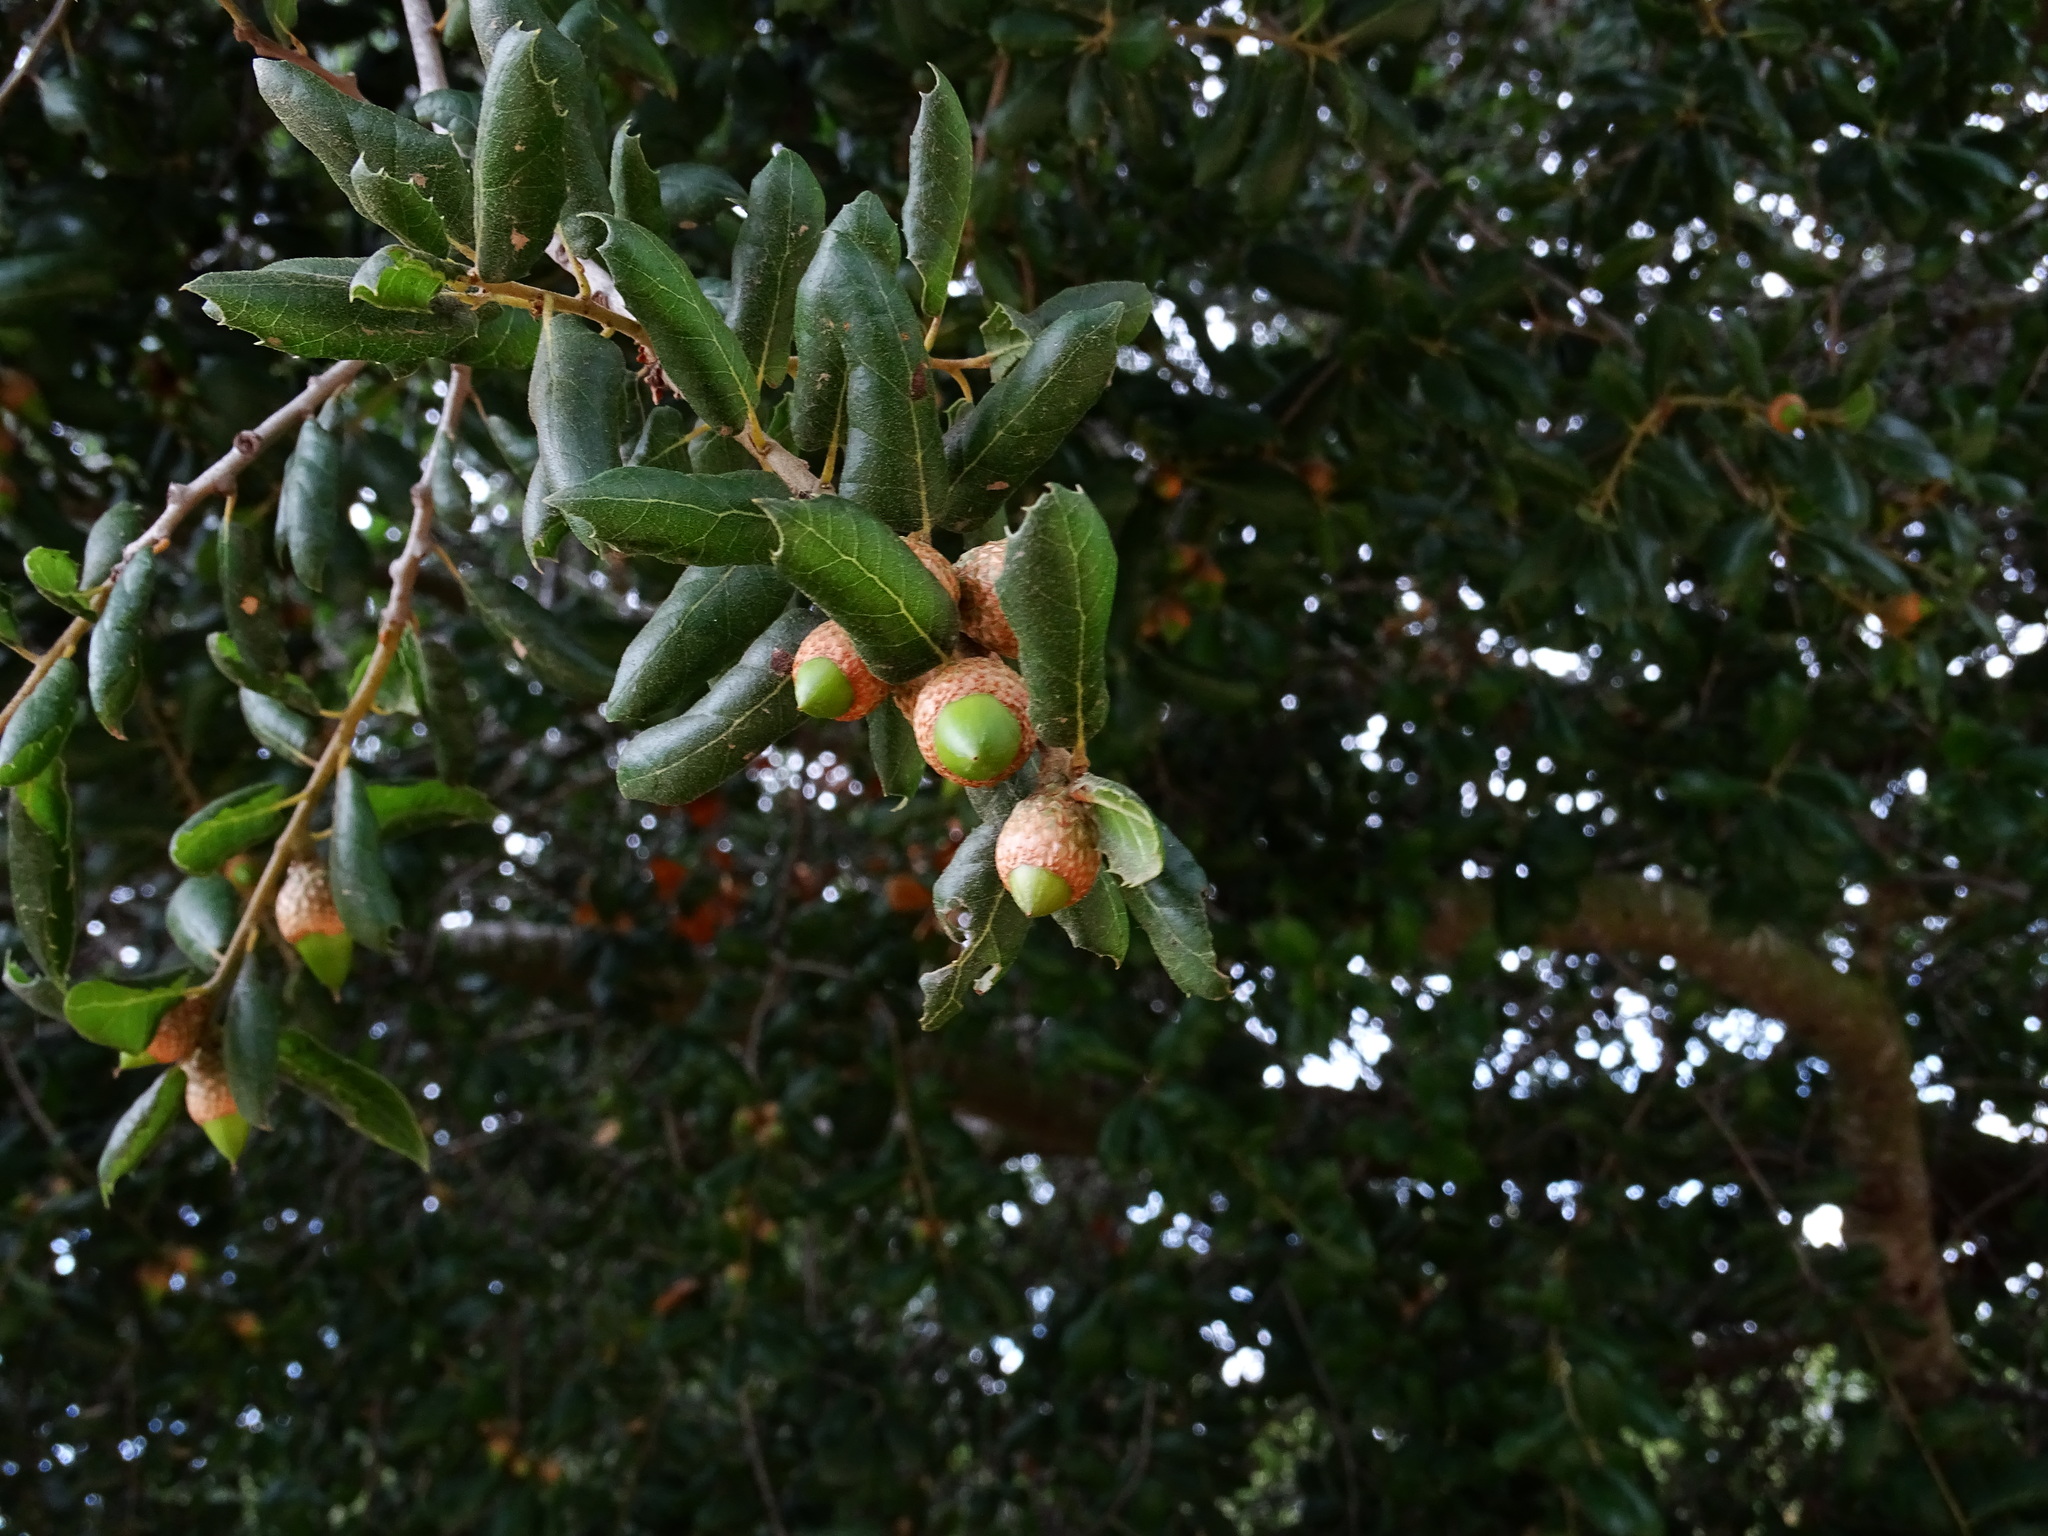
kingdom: Plantae
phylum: Tracheophyta
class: Magnoliopsida
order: Fagales
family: Fagaceae
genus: Quercus
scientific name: Quercus agrifolia
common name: California live oak
